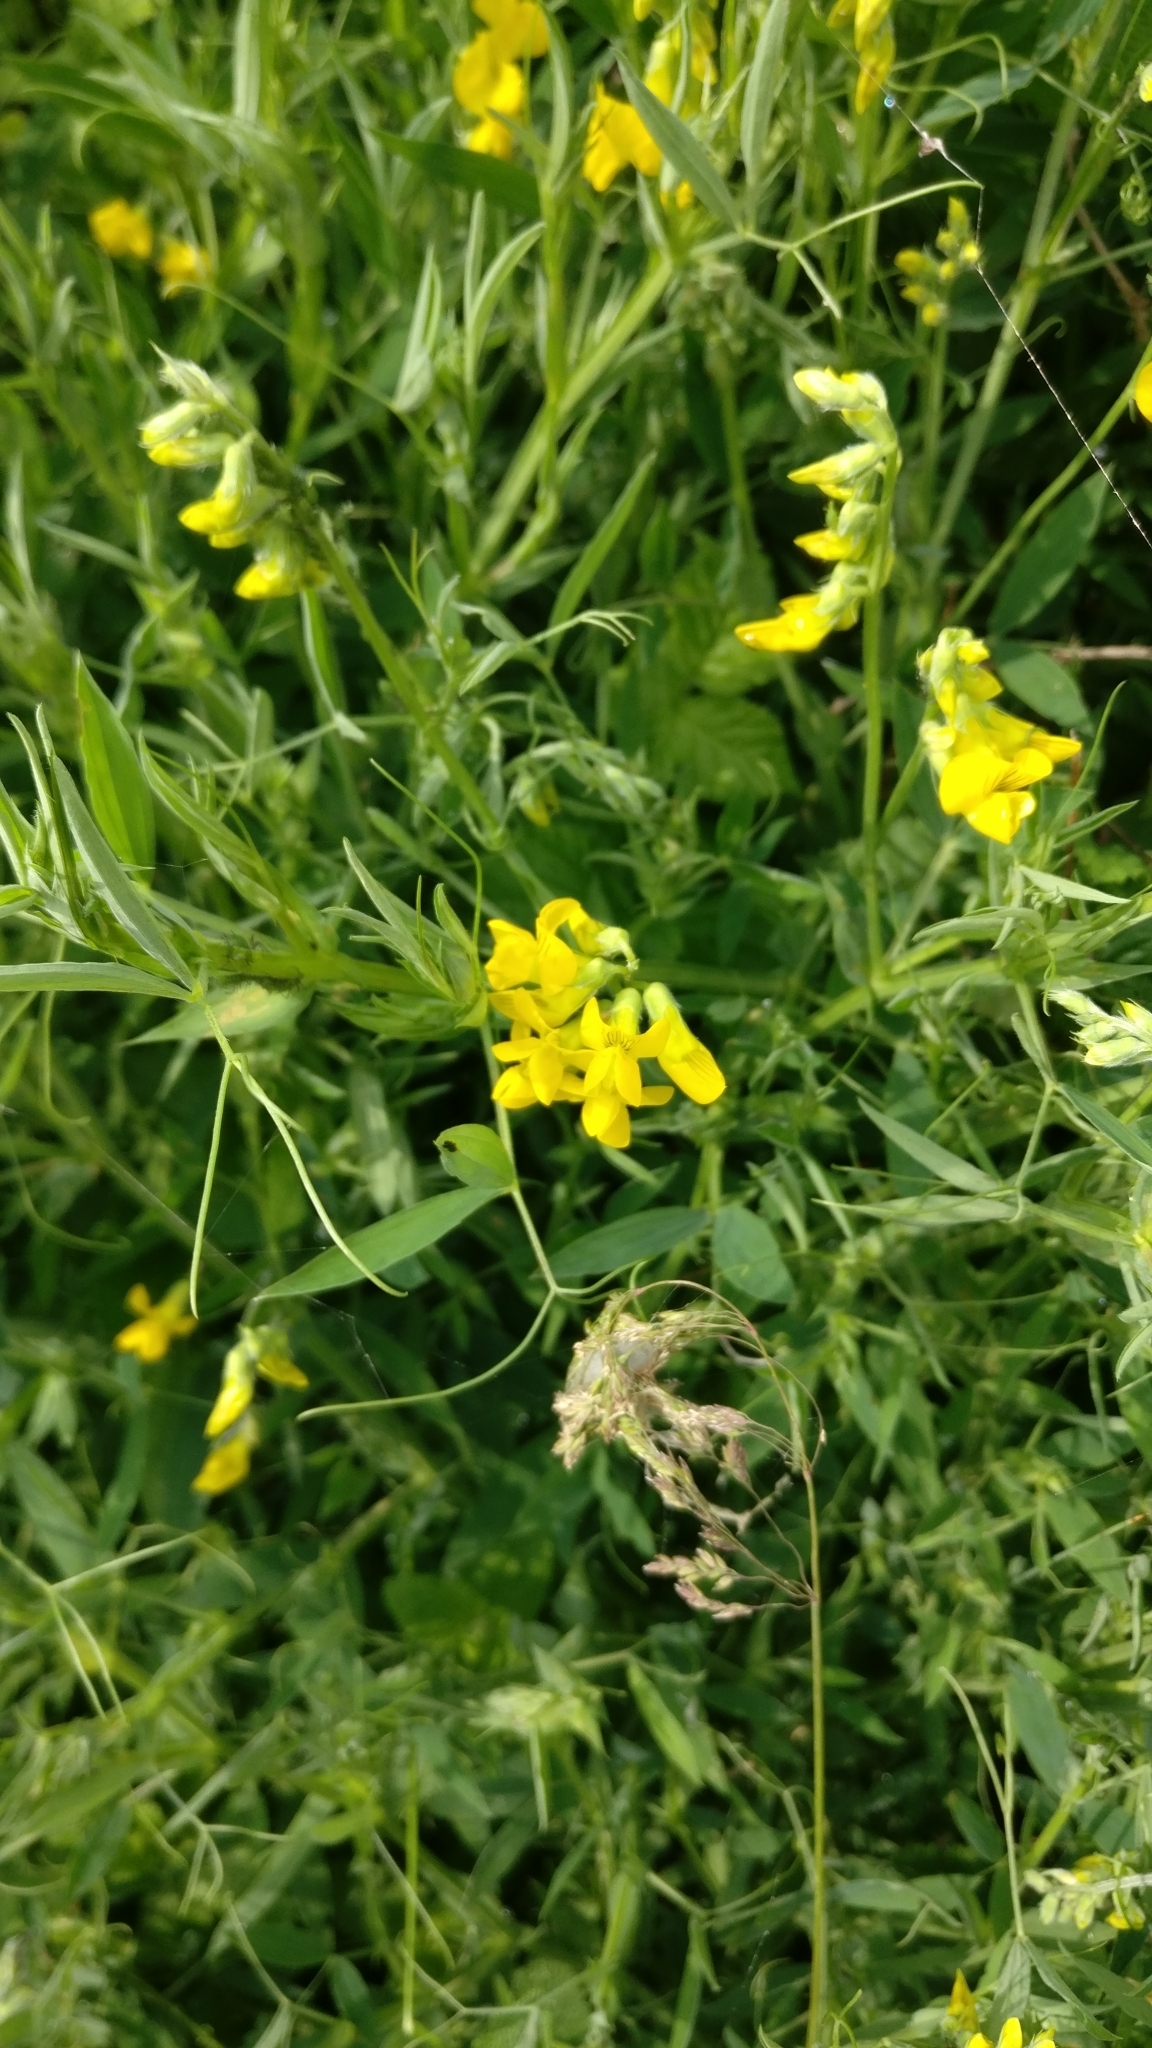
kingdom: Plantae
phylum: Tracheophyta
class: Magnoliopsida
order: Fabales
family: Fabaceae
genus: Lathyrus
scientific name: Lathyrus pratensis
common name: Meadow vetchling
